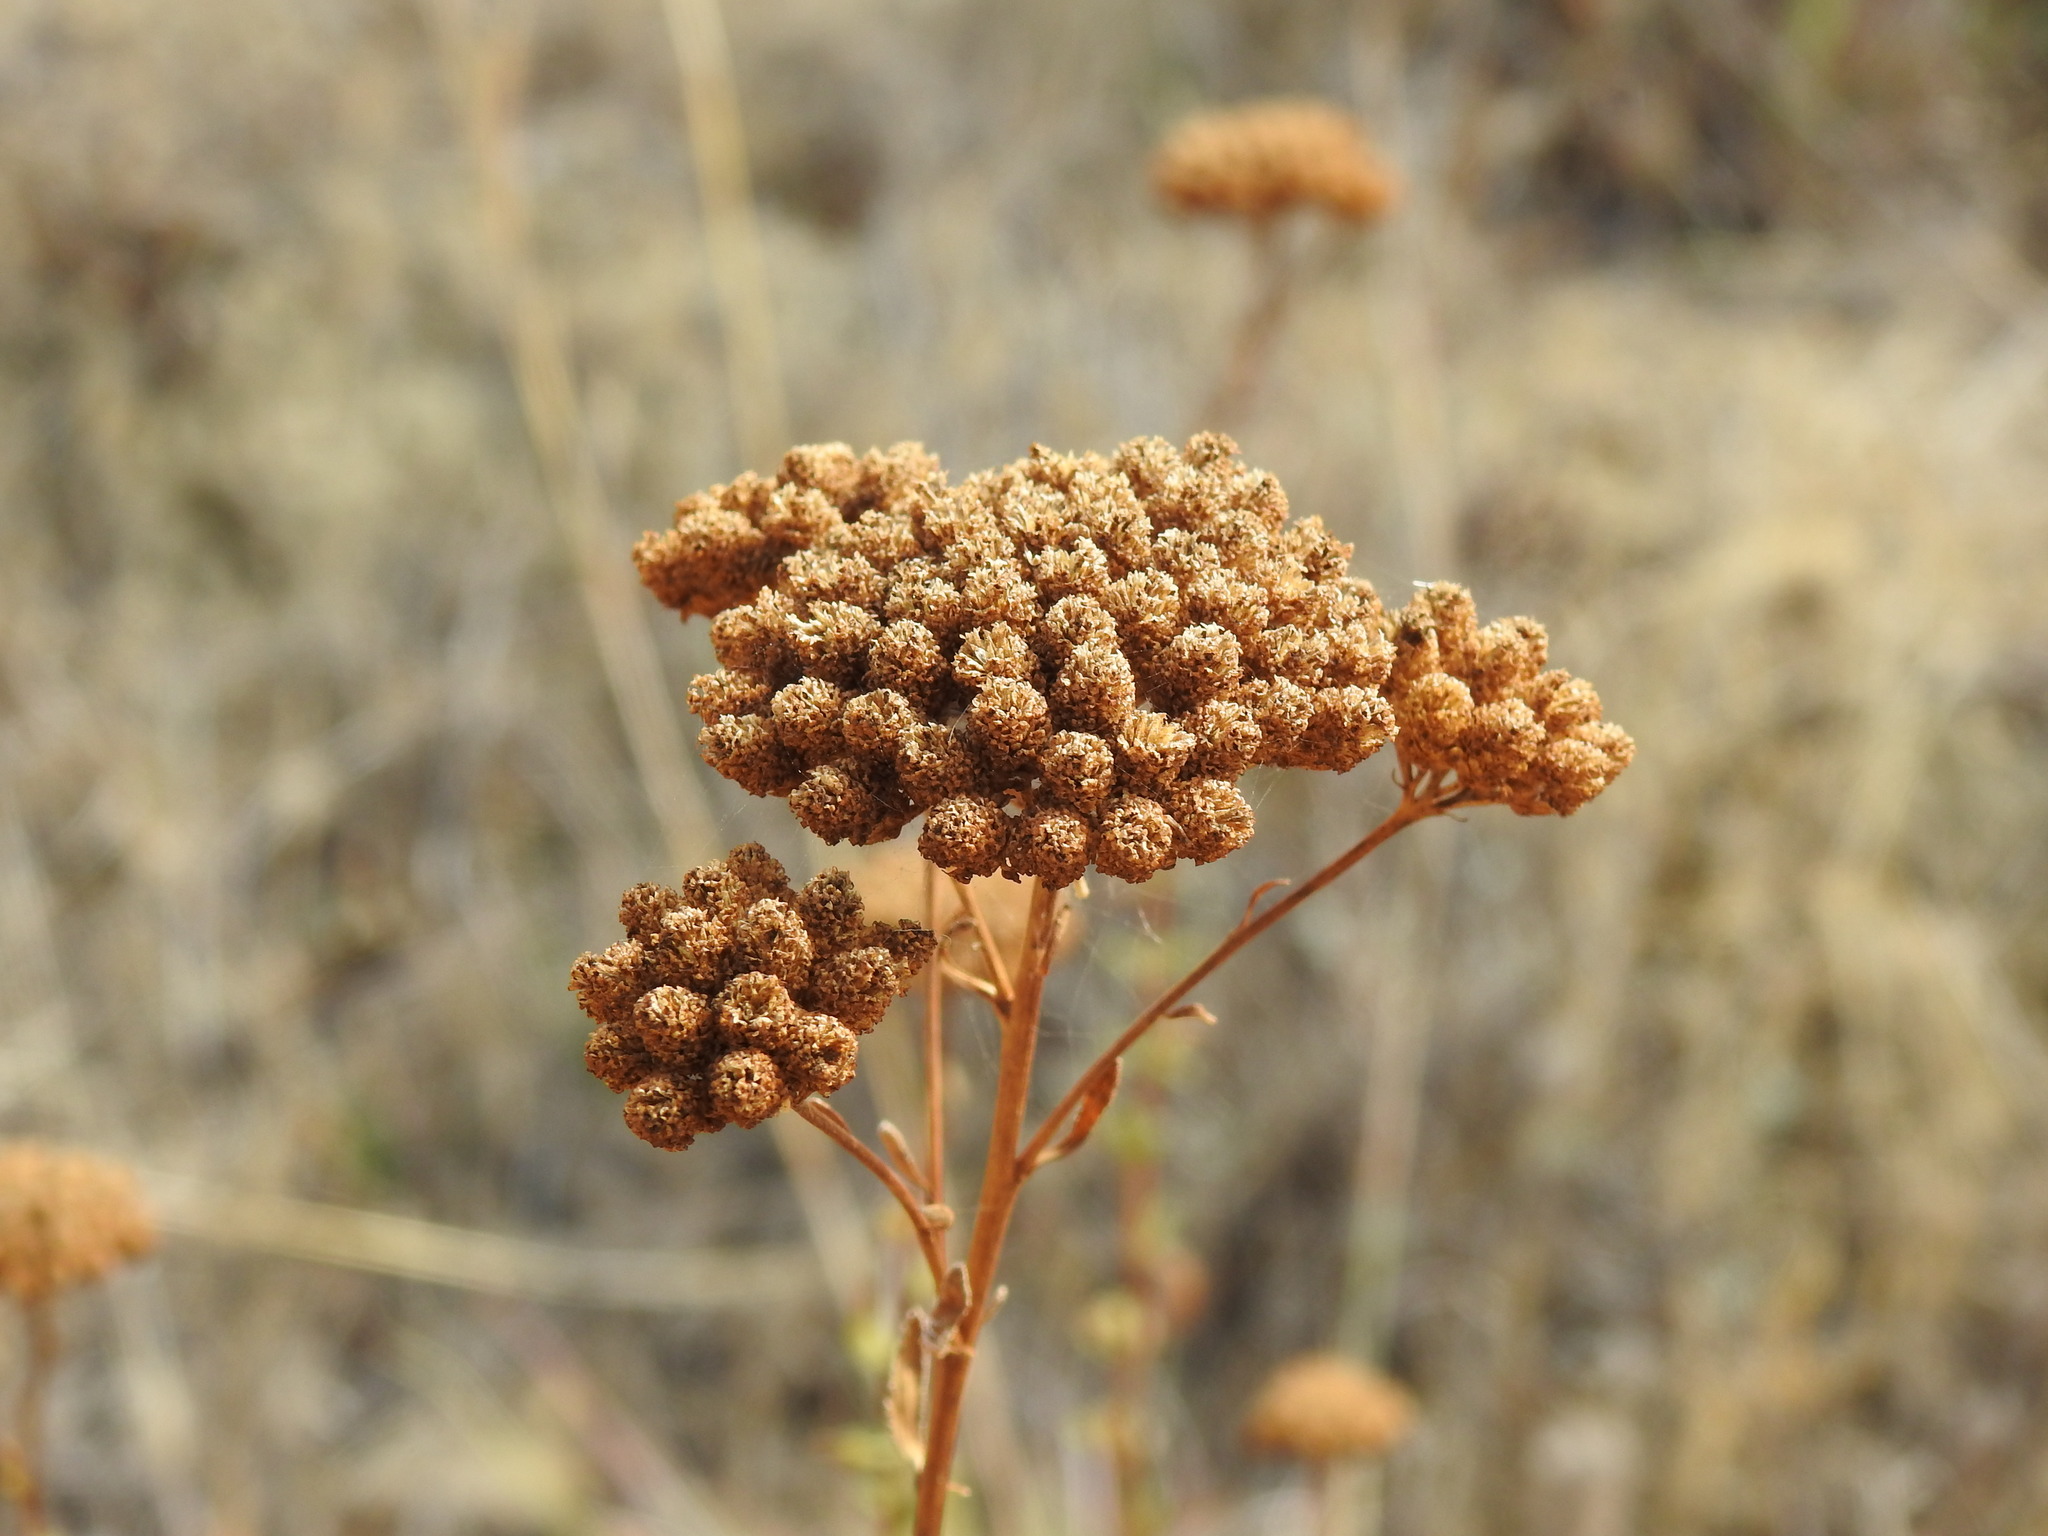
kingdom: Plantae
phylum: Tracheophyta
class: Magnoliopsida
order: Asterales
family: Asteraceae
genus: Achillea
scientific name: Achillea ageratum
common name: Sweet-nancy
